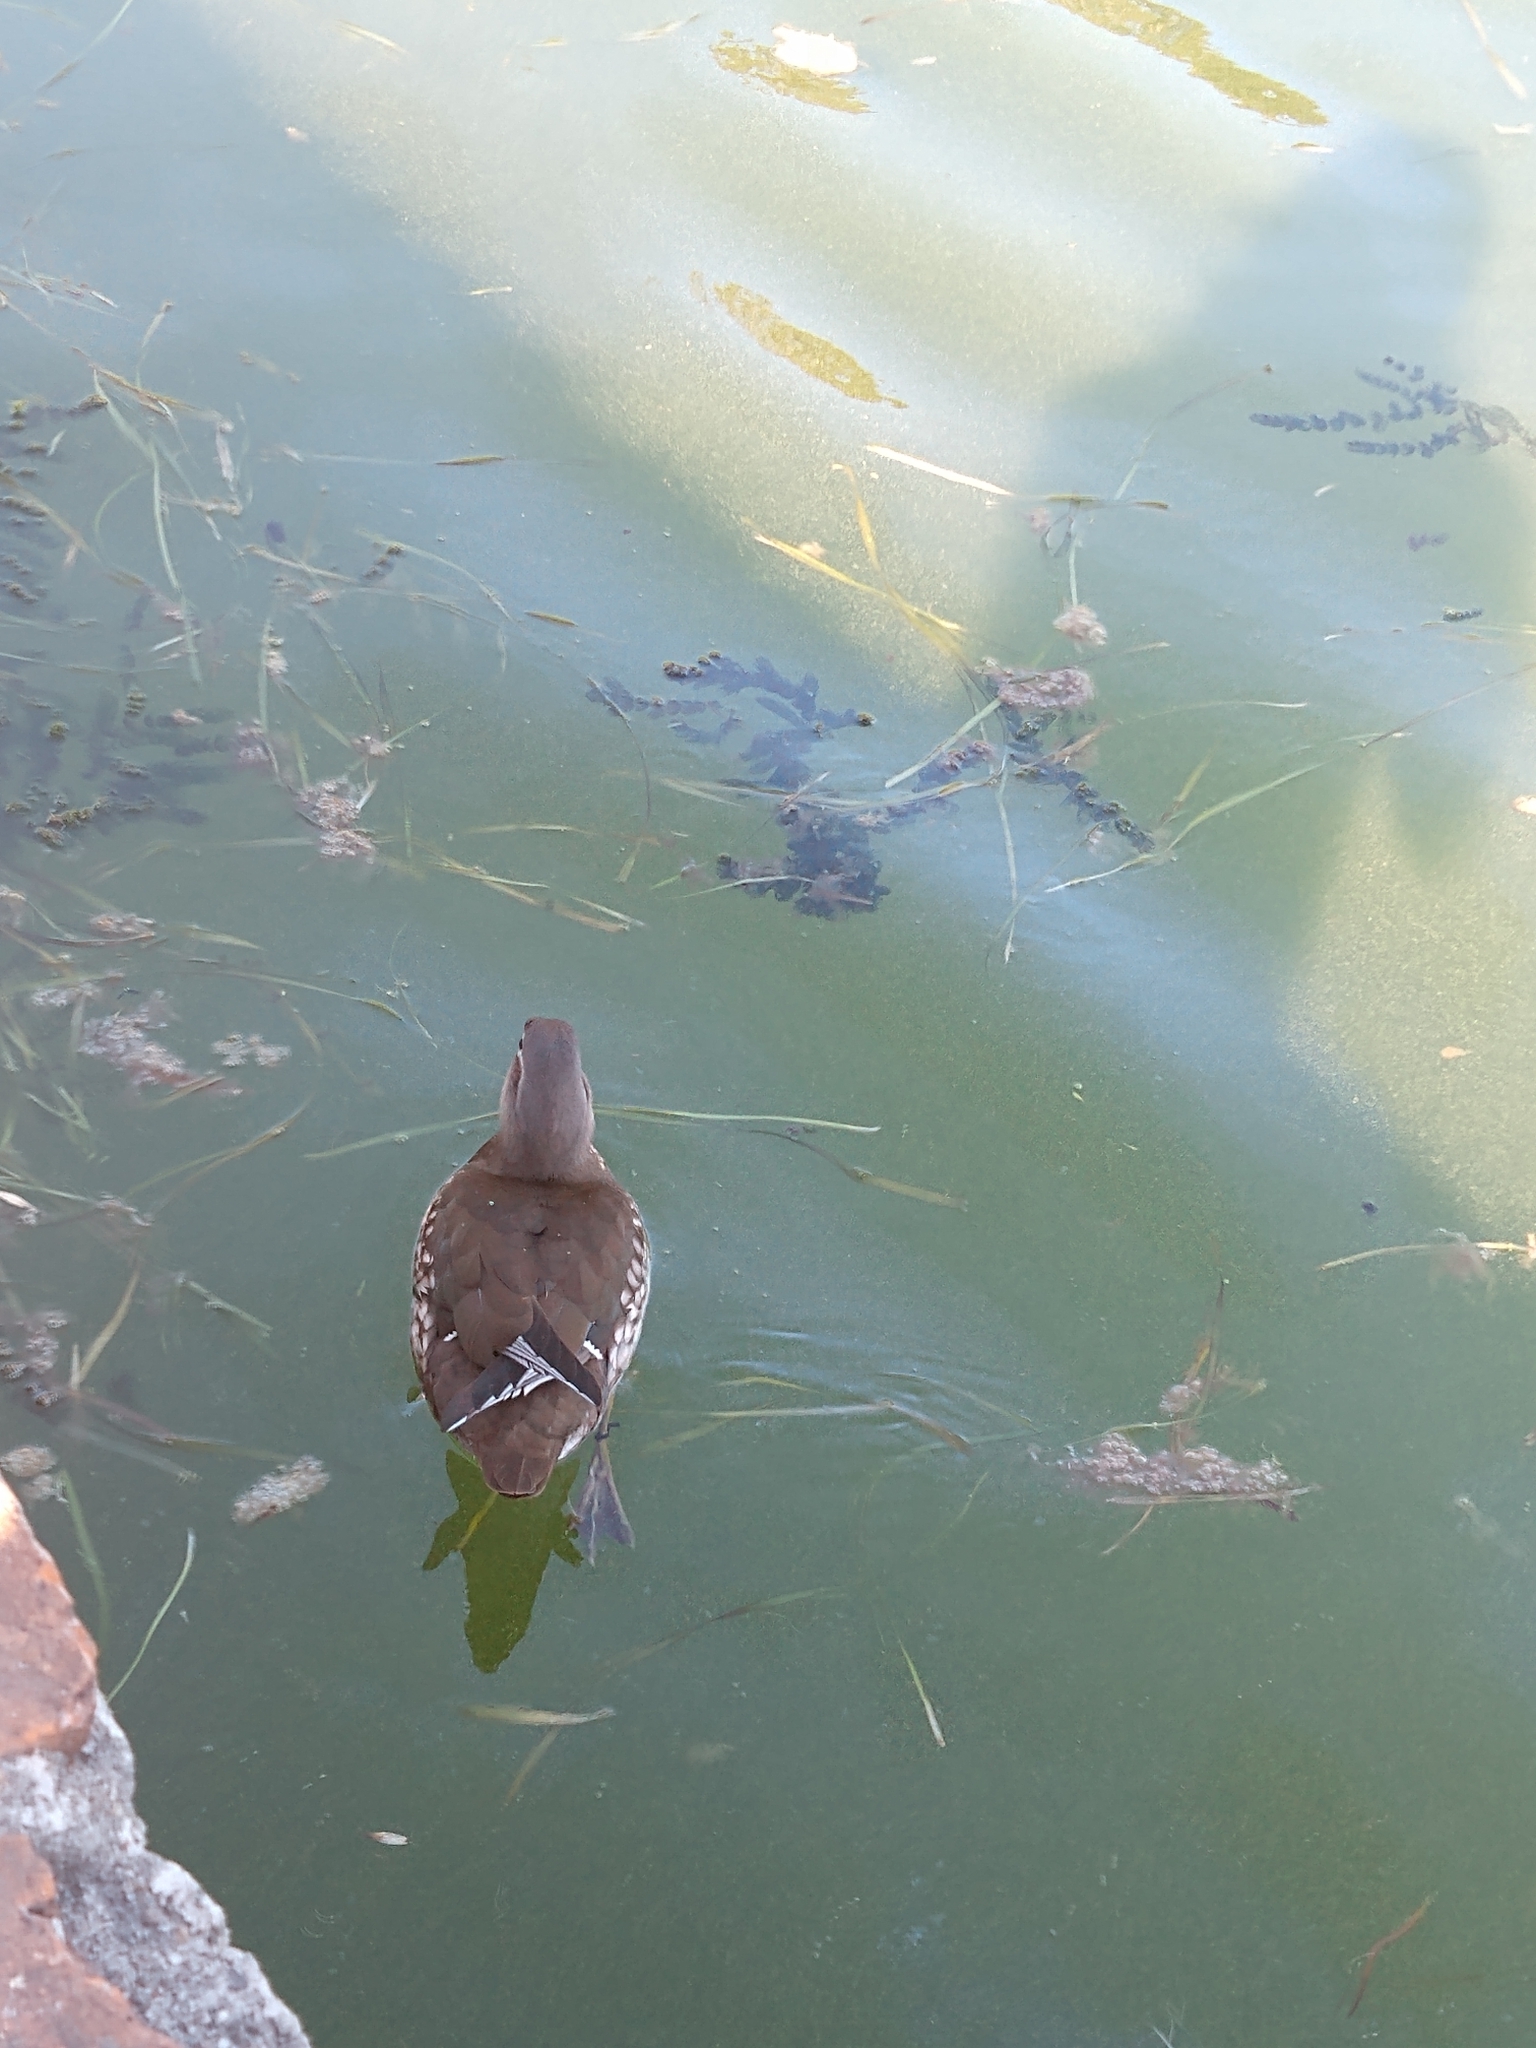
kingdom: Animalia
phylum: Chordata
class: Aves
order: Anseriformes
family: Anatidae
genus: Aix
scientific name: Aix sponsa
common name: Wood duck
